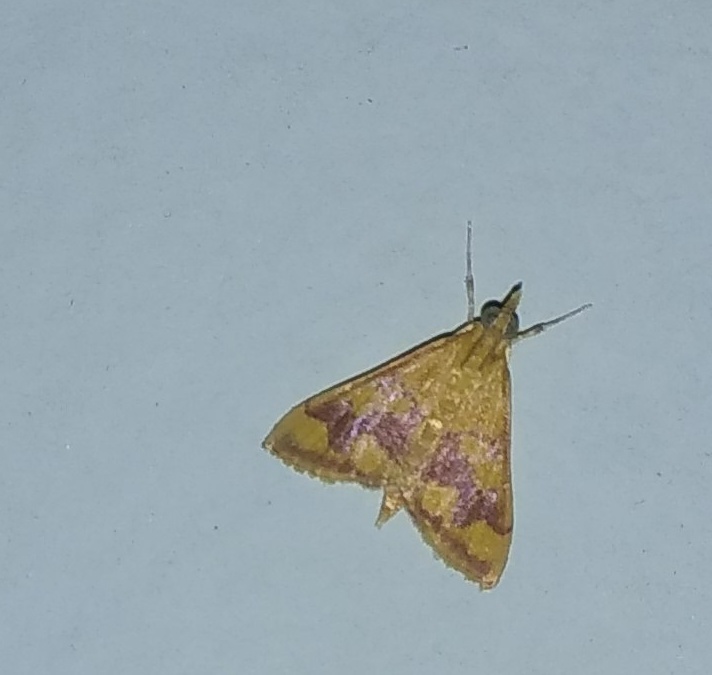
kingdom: Animalia
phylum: Arthropoda
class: Insecta
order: Lepidoptera
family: Crambidae
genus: Pyrausta
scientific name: Pyrausta phoenicealis
